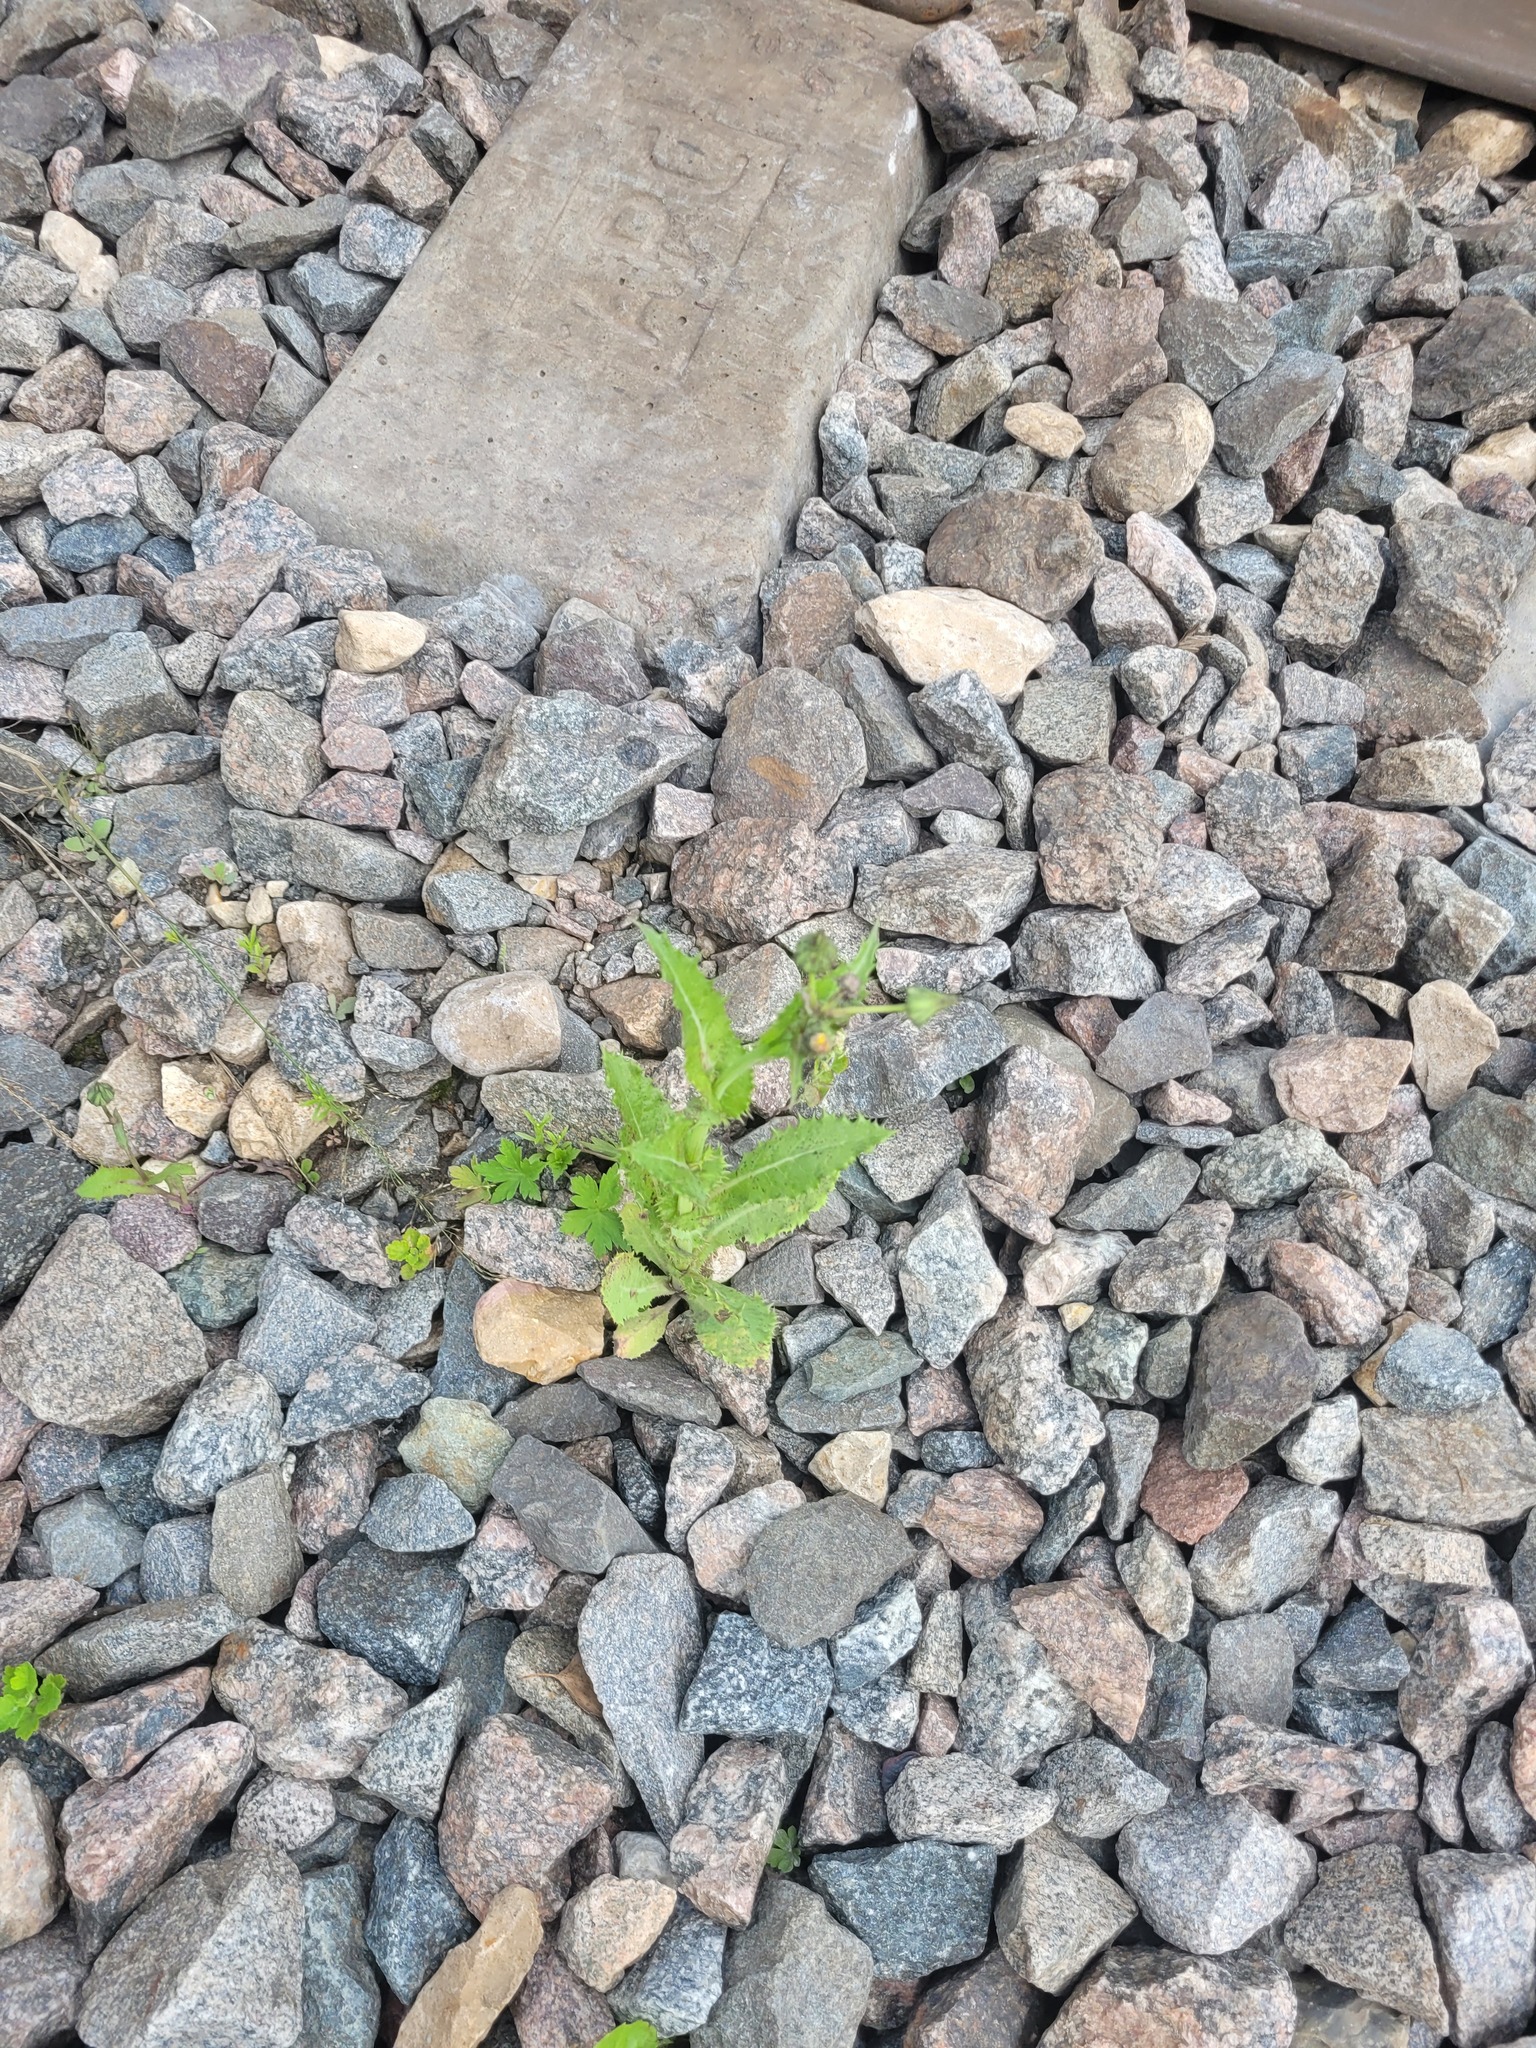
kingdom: Plantae
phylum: Tracheophyta
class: Magnoliopsida
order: Asterales
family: Asteraceae
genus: Sonchus
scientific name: Sonchus asper
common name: Prickly sow-thistle
